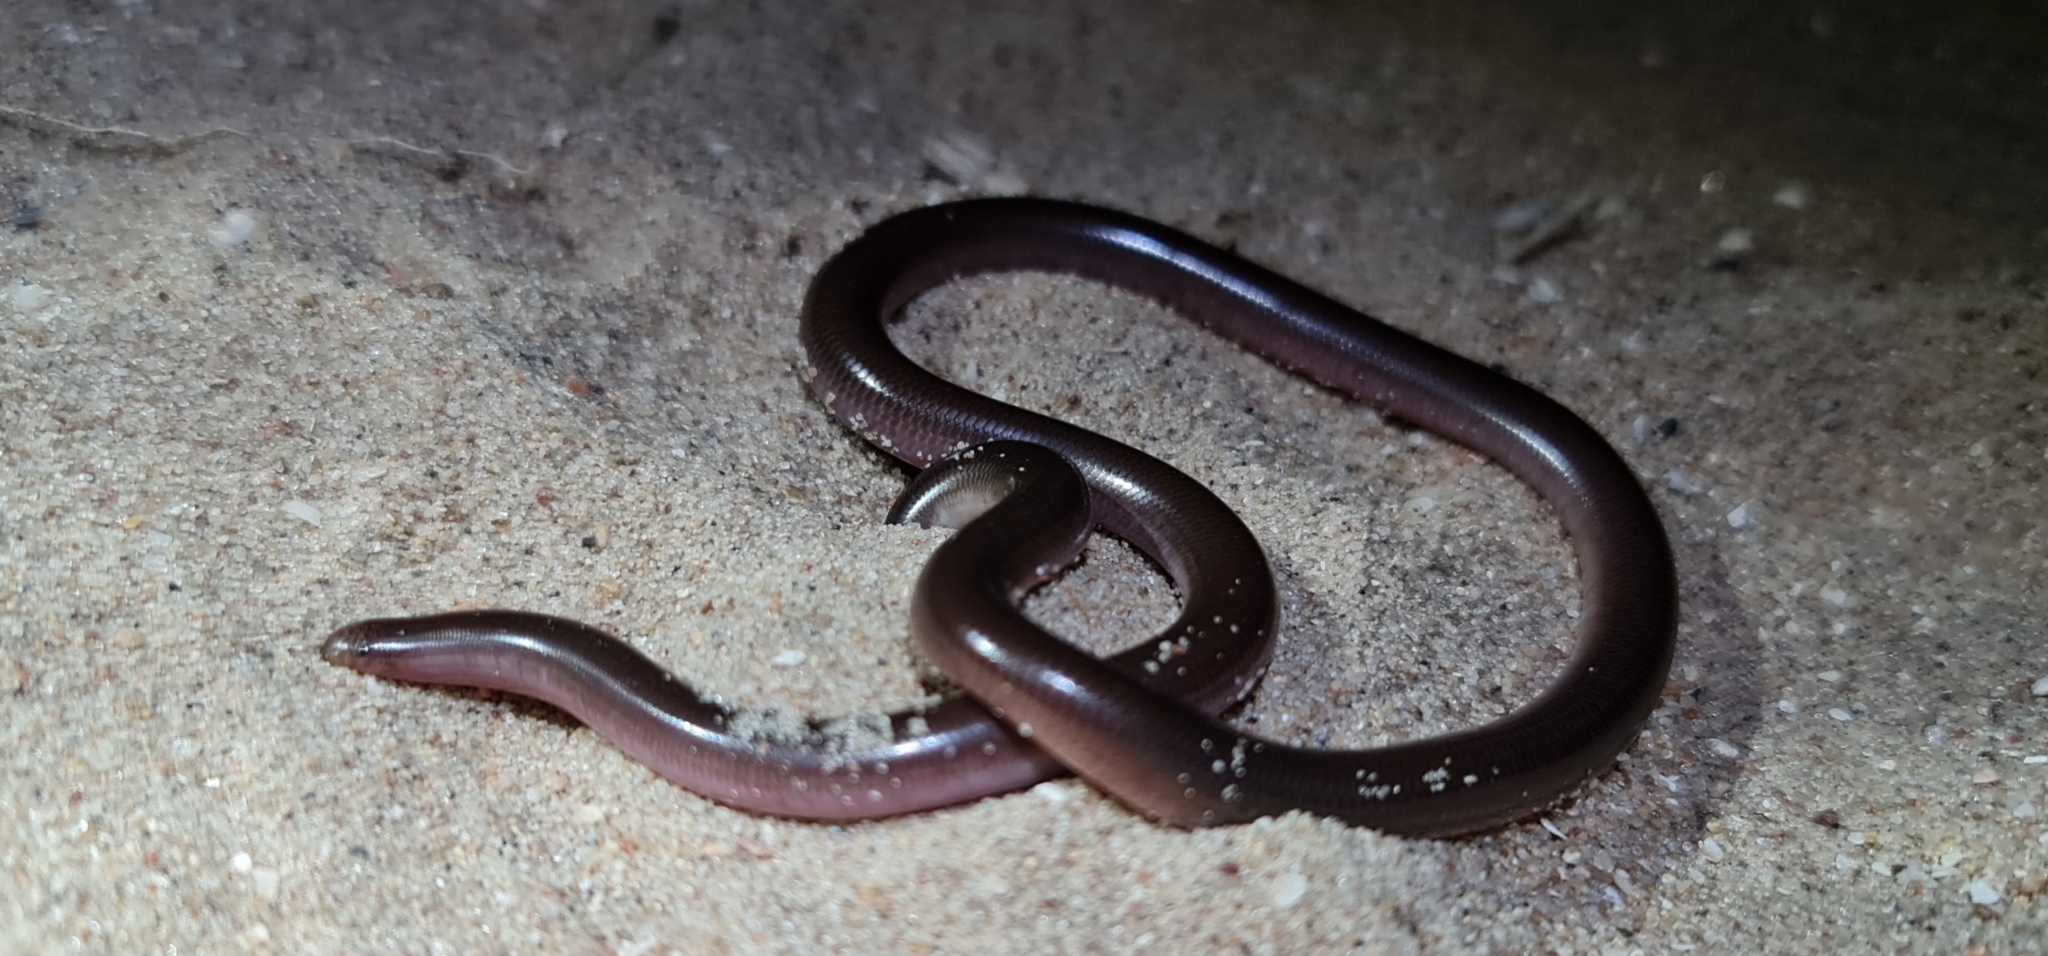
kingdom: Animalia
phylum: Chordata
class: Squamata
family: Typhlopidae
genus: Anilios
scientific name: Anilios bituberculatus
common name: Prong-snouted blind snake
